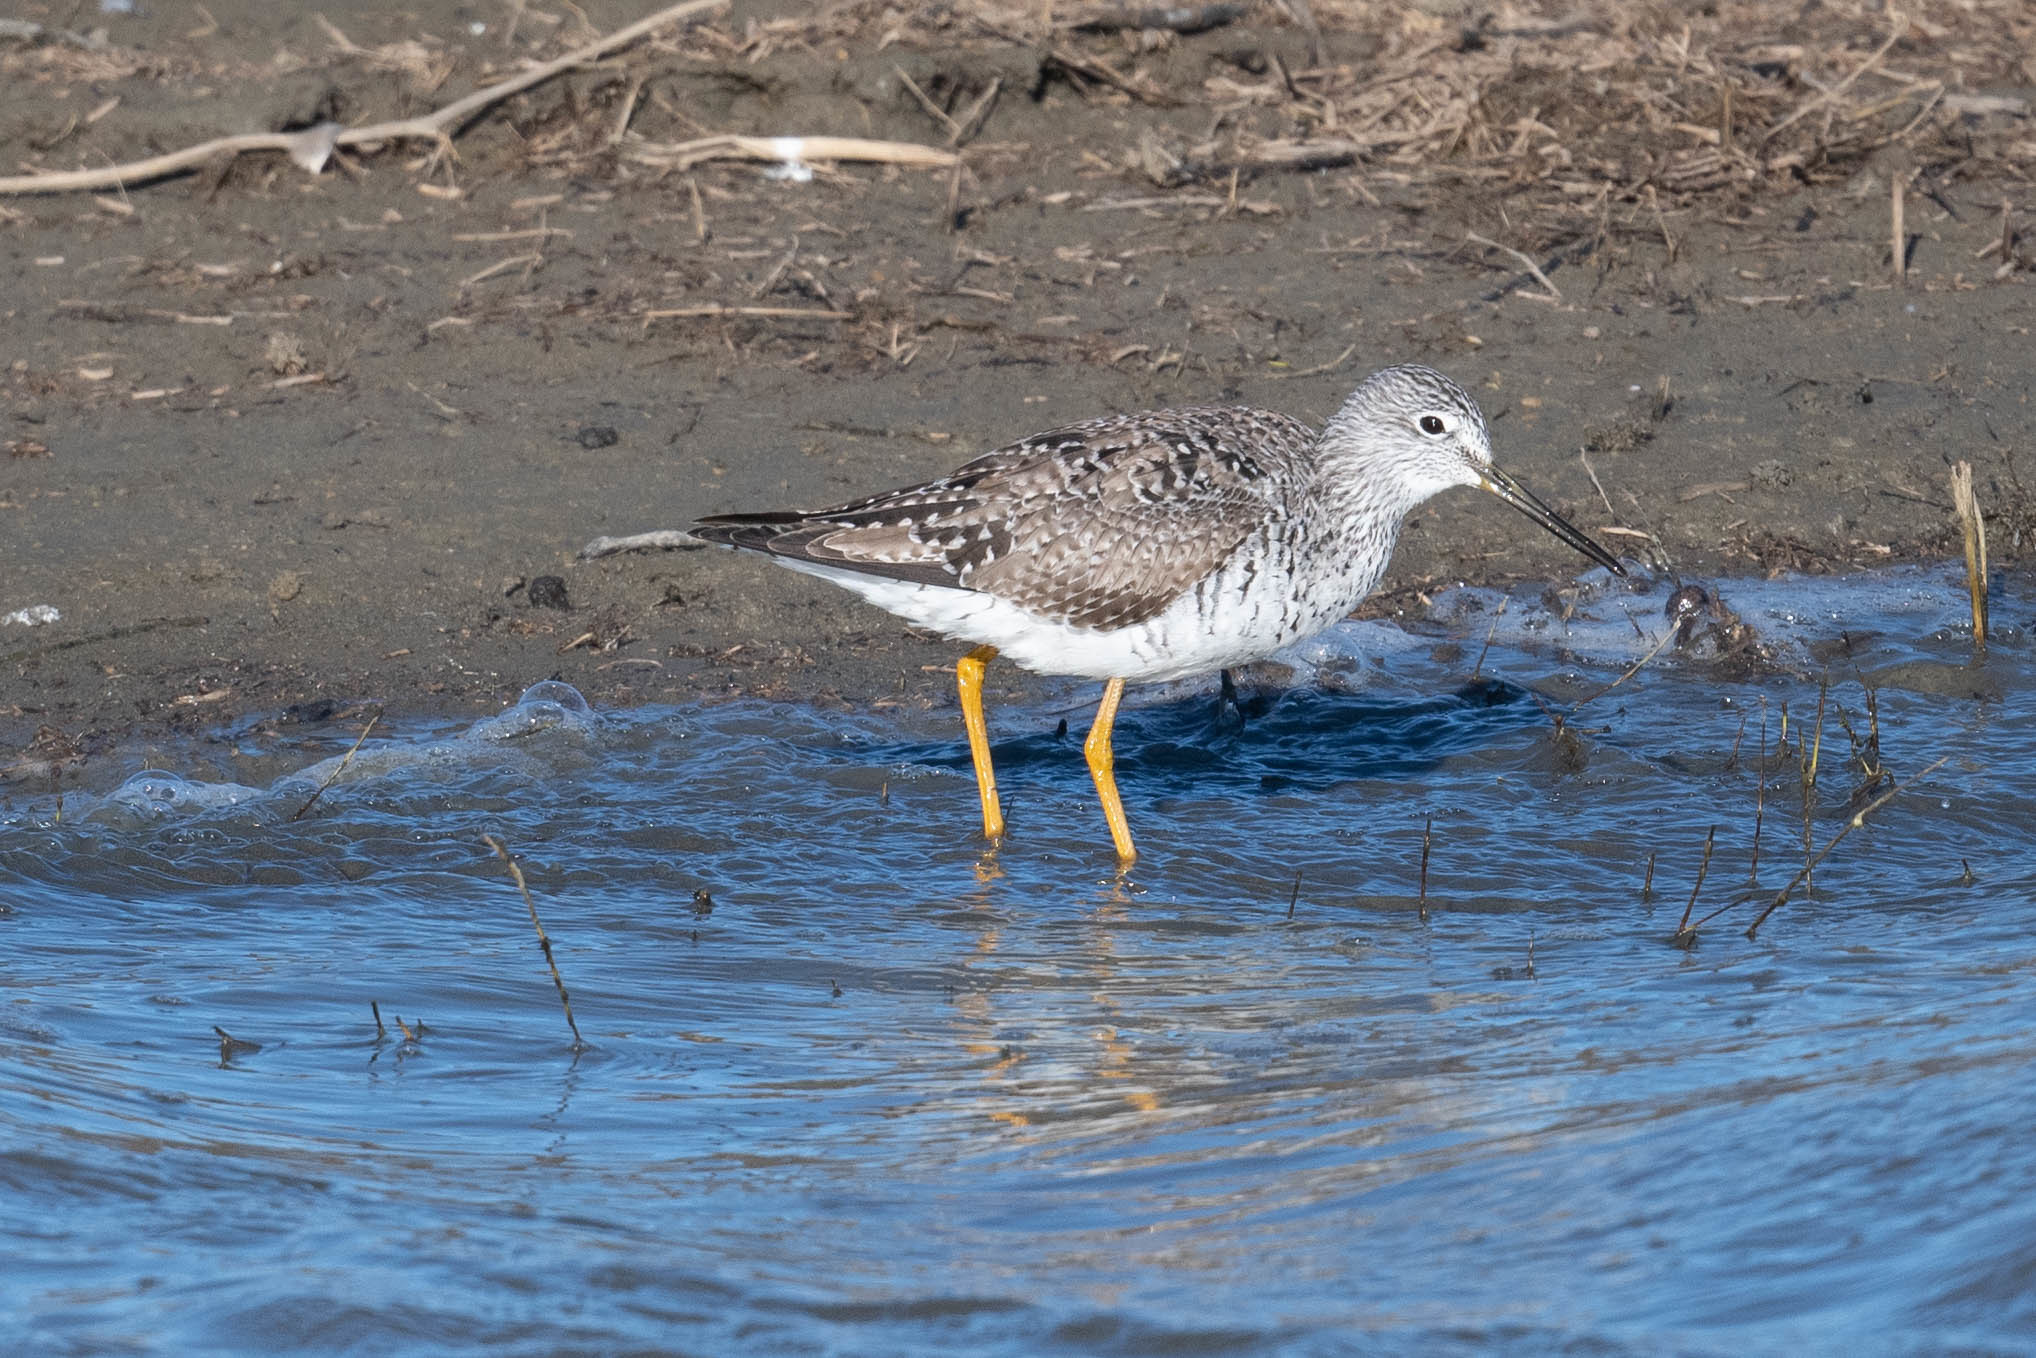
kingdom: Animalia
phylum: Chordata
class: Aves
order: Charadriiformes
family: Scolopacidae
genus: Tringa
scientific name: Tringa melanoleuca
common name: Greater yellowlegs
